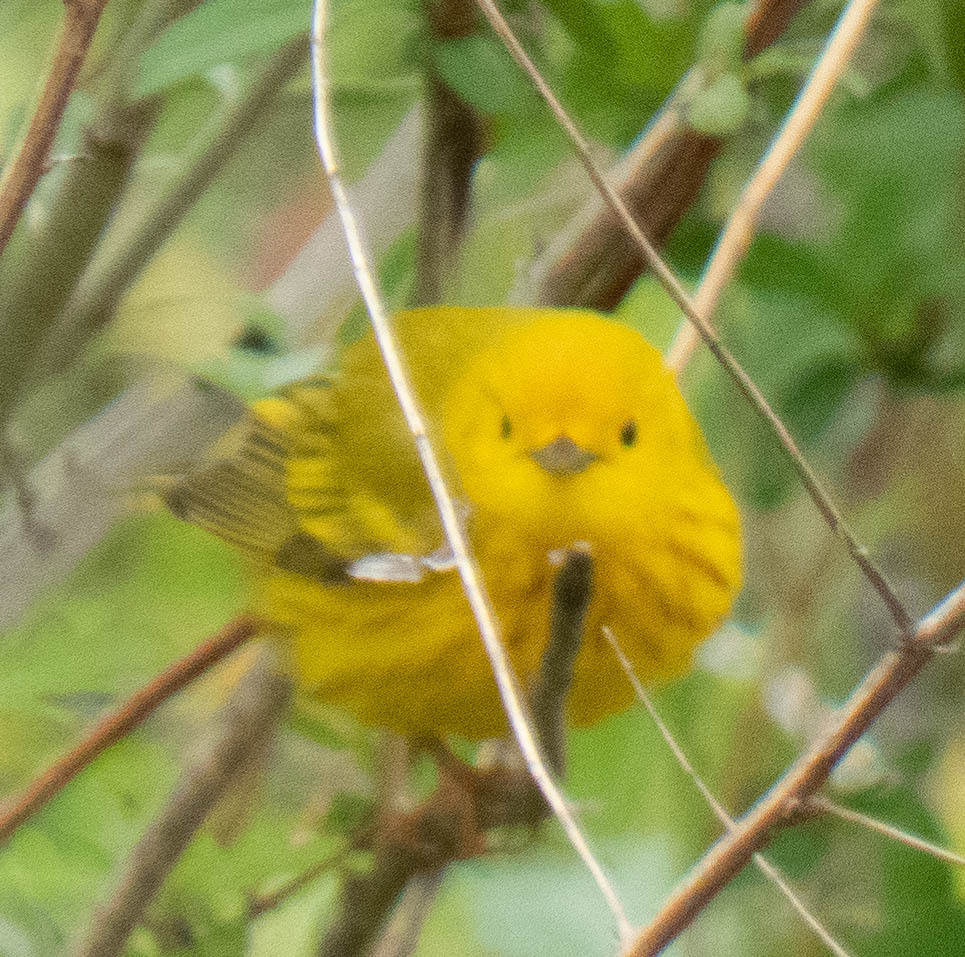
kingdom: Animalia
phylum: Chordata
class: Aves
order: Passeriformes
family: Parulidae
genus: Setophaga
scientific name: Setophaga petechia
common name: Yellow warbler
